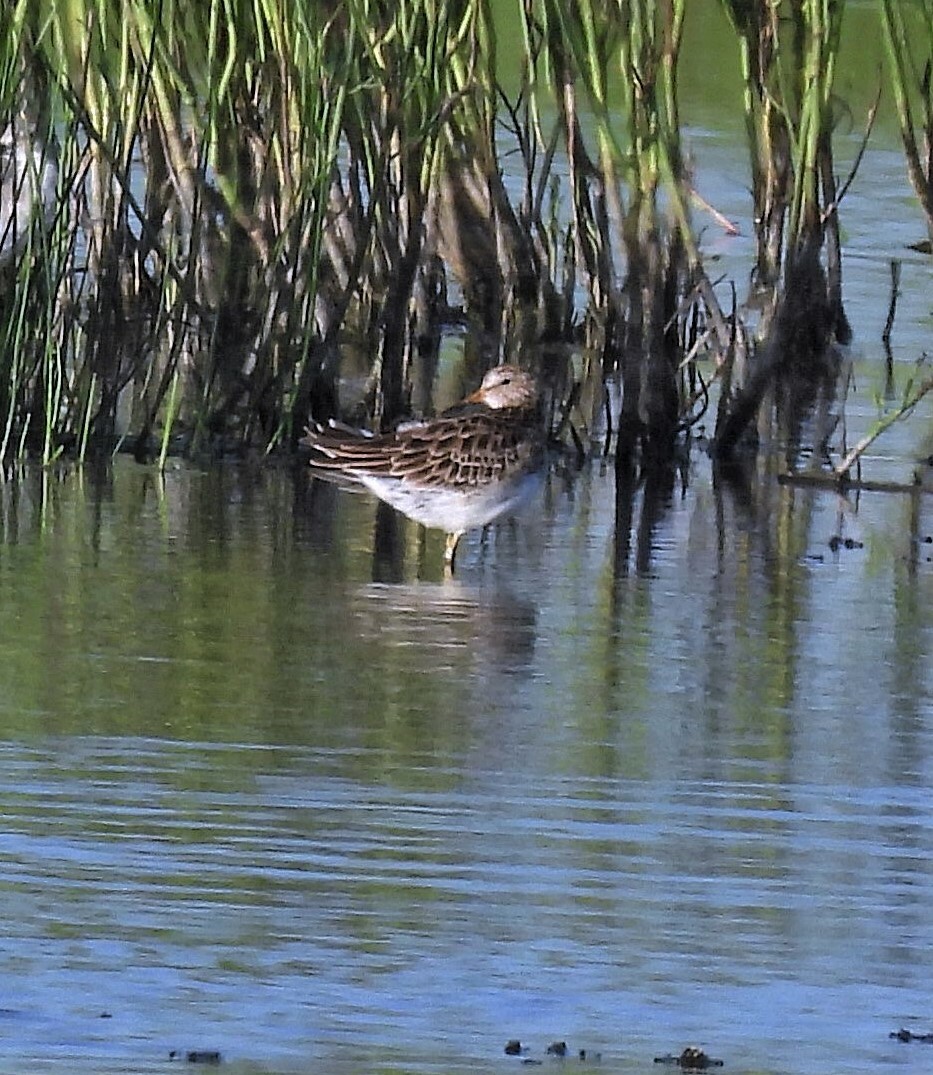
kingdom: Animalia
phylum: Chordata
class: Aves
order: Charadriiformes
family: Scolopacidae
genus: Calidris
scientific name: Calidris melanotos
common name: Pectoral sandpiper
